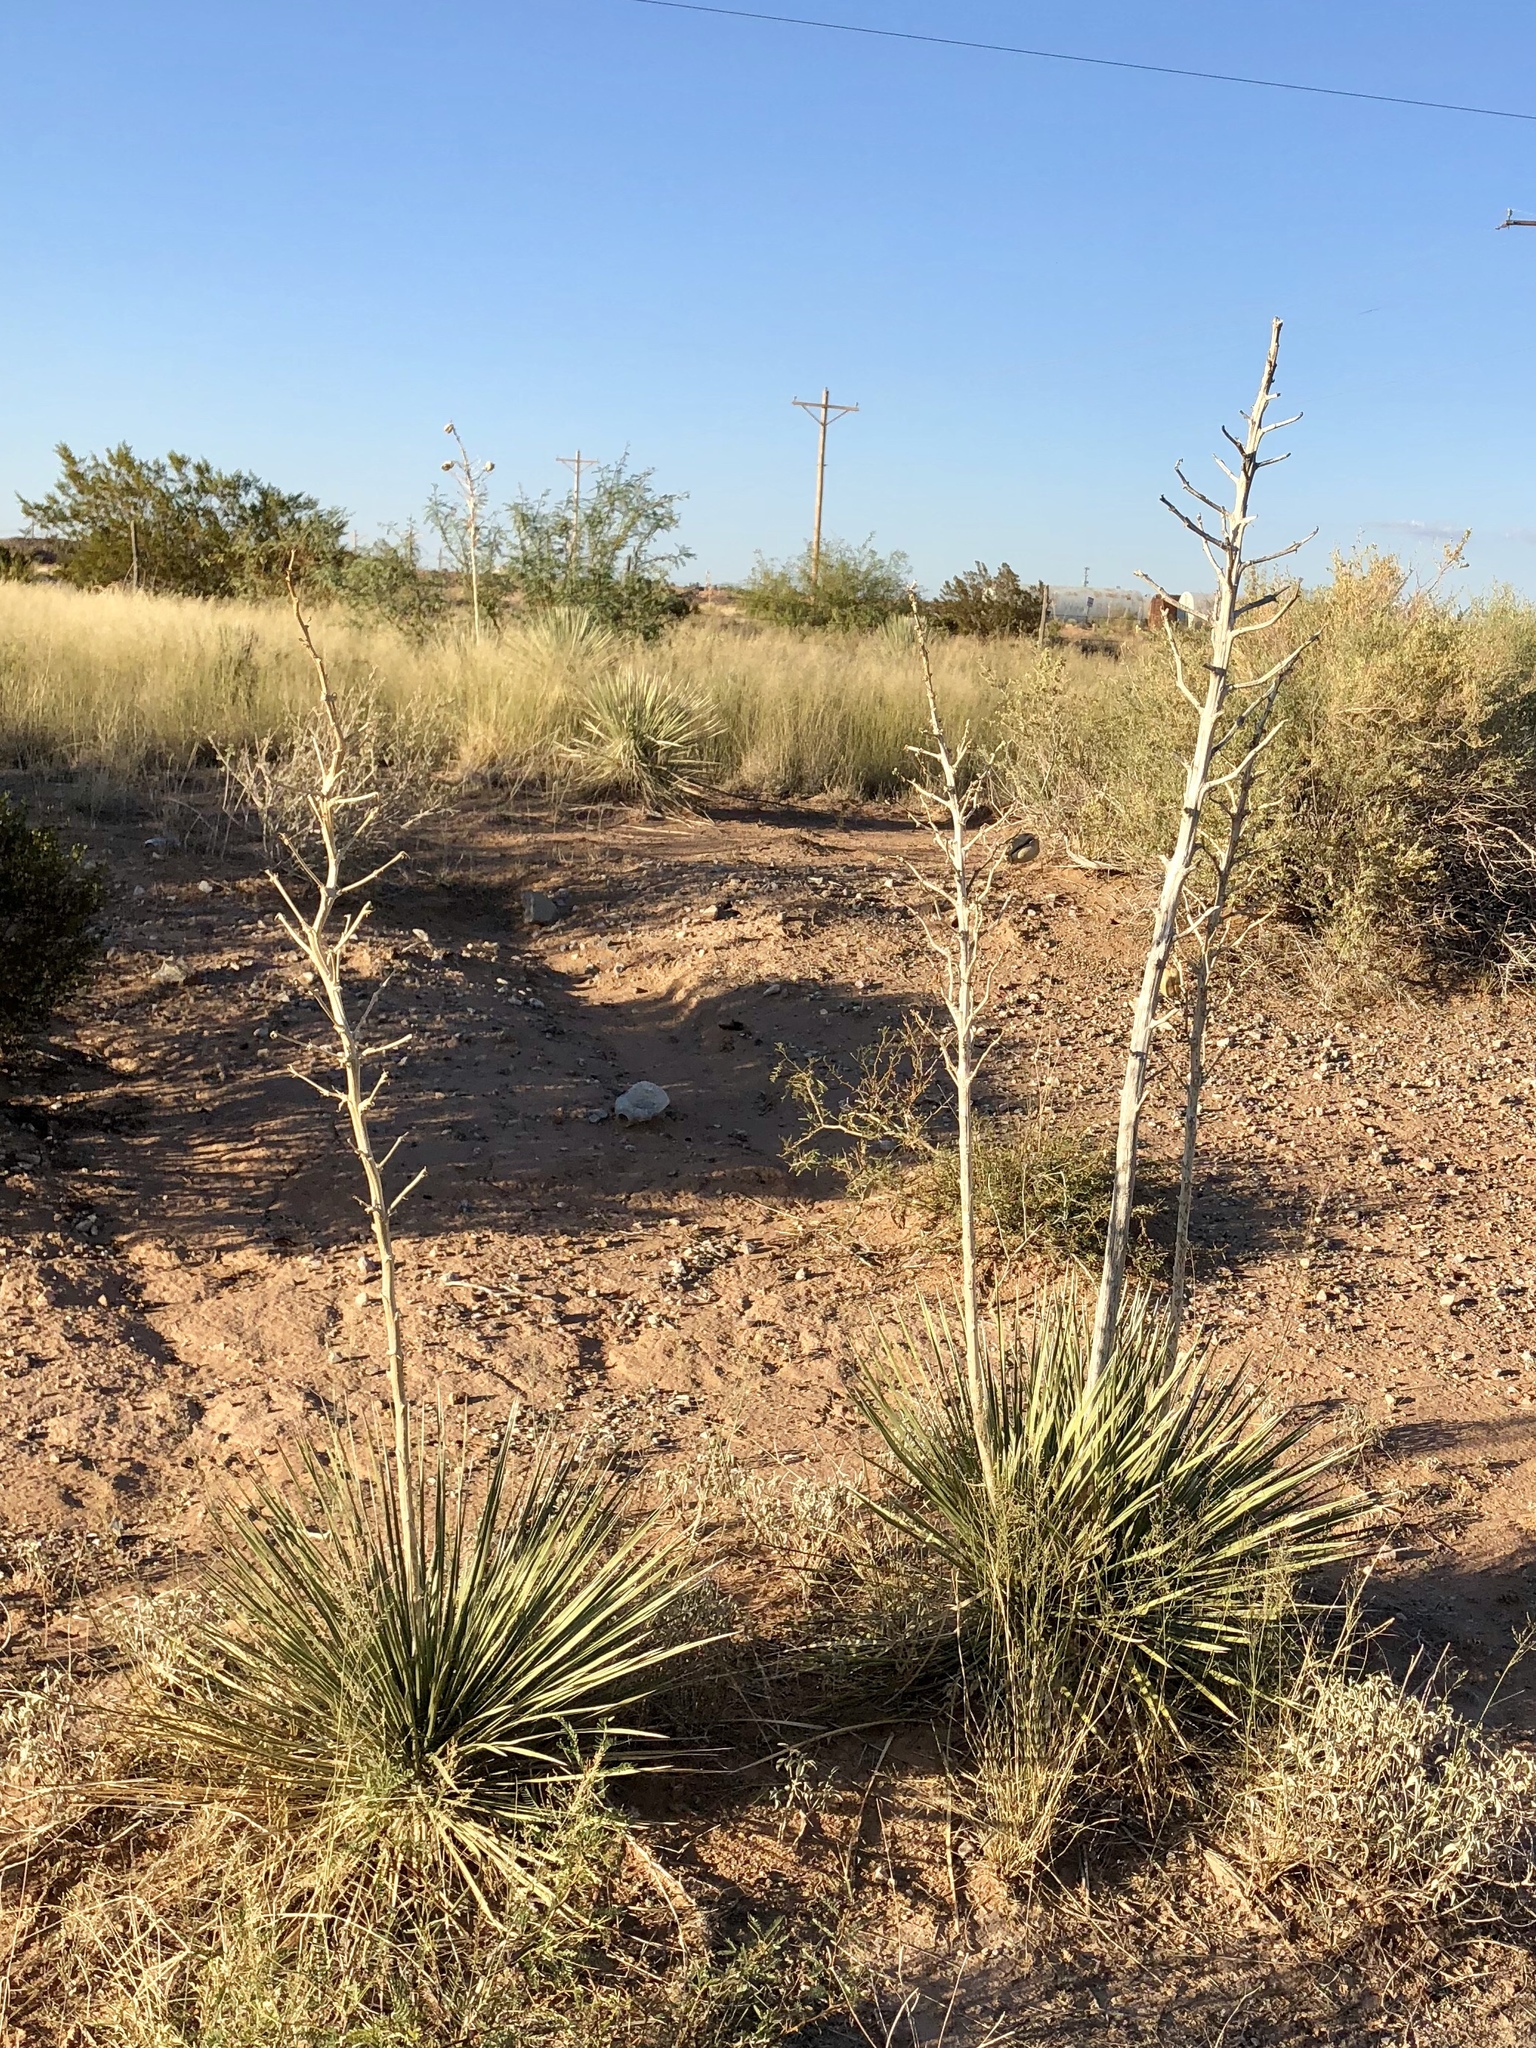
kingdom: Plantae
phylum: Tracheophyta
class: Liliopsida
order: Asparagales
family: Asparagaceae
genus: Yucca
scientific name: Yucca elata
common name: Palmella
